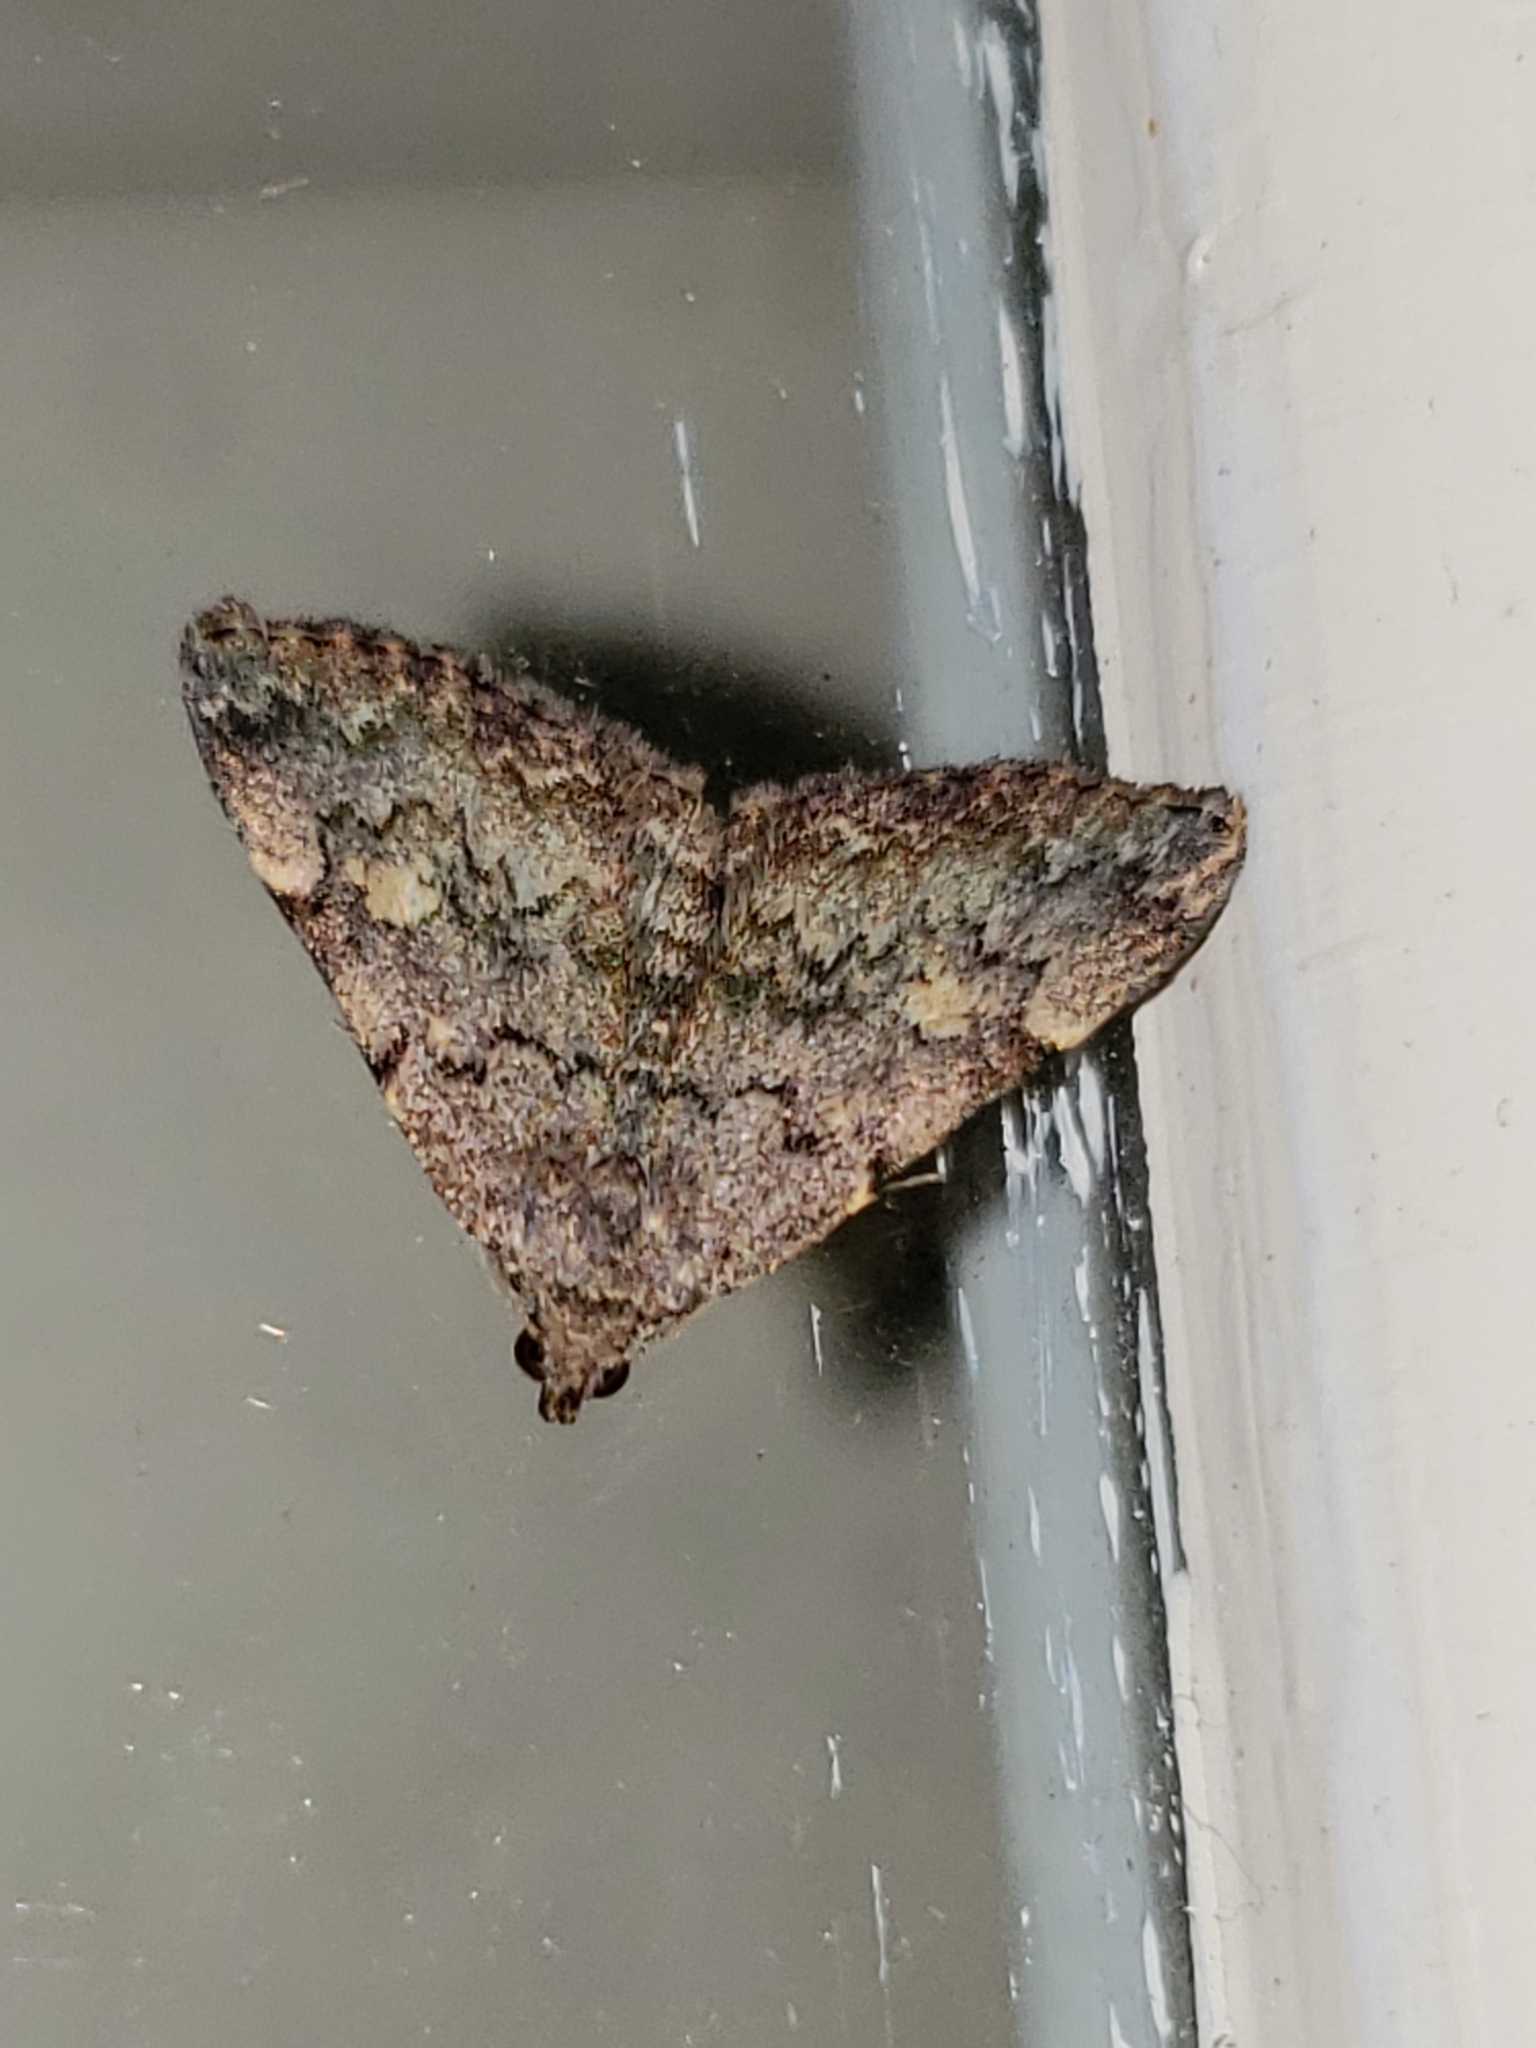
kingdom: Animalia
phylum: Arthropoda
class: Insecta
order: Lepidoptera
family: Erebidae
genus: Idia
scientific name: Idia aemula
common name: Common idia moth
